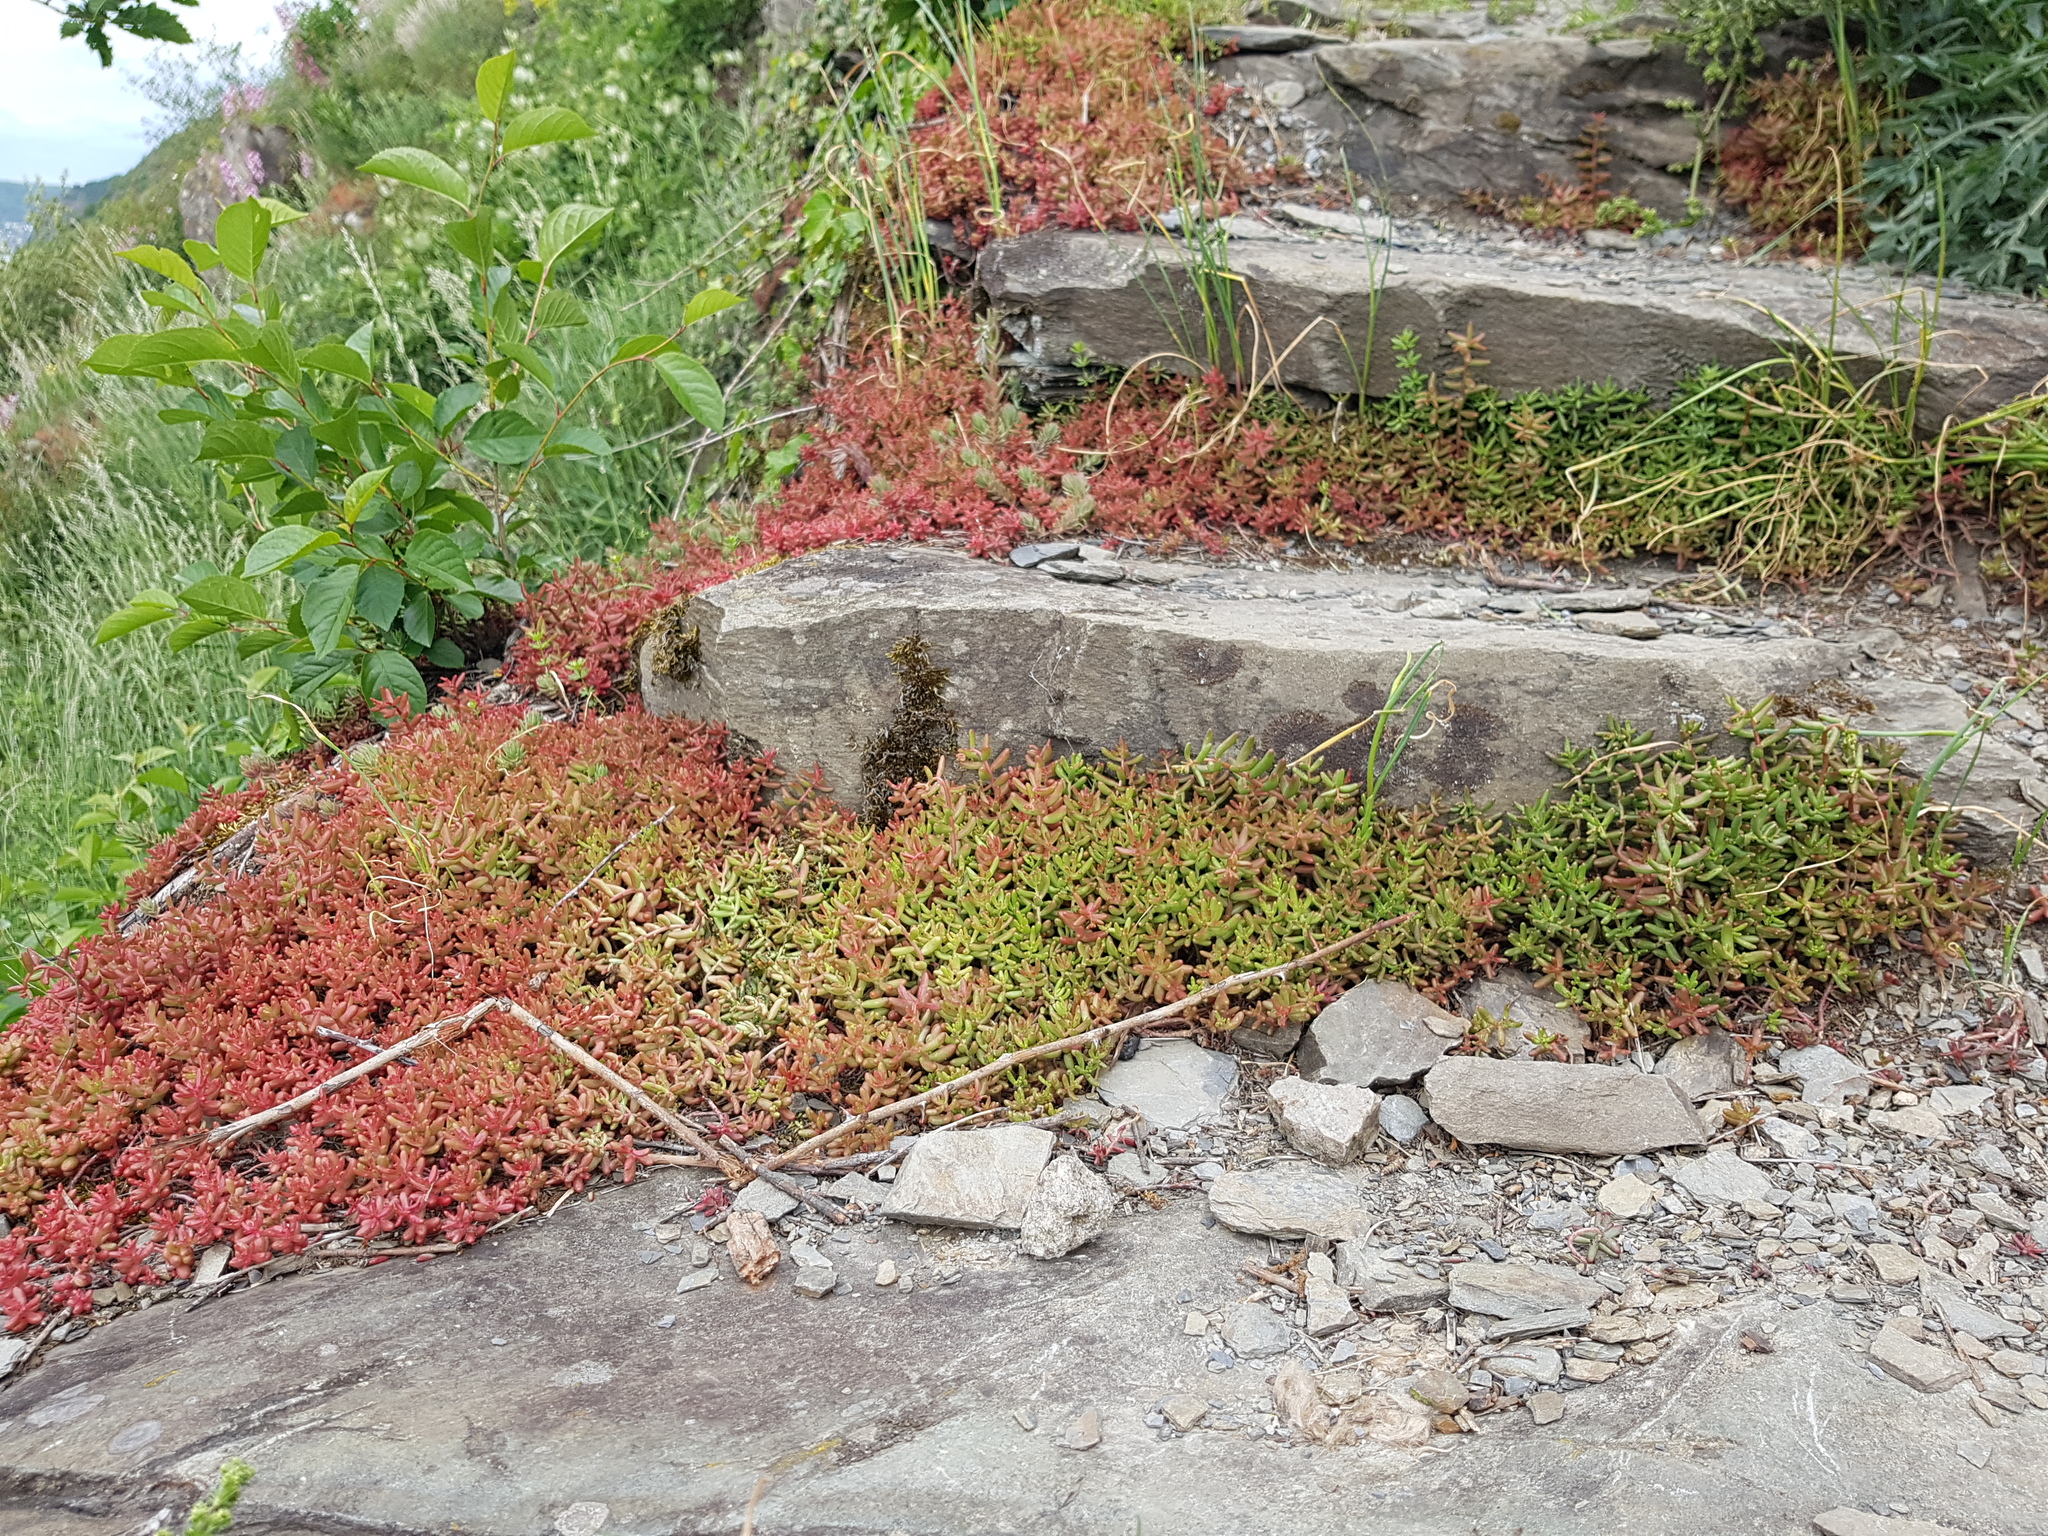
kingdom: Plantae
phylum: Tracheophyta
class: Magnoliopsida
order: Saxifragales
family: Crassulaceae
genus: Sedum
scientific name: Sedum album
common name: White stonecrop
